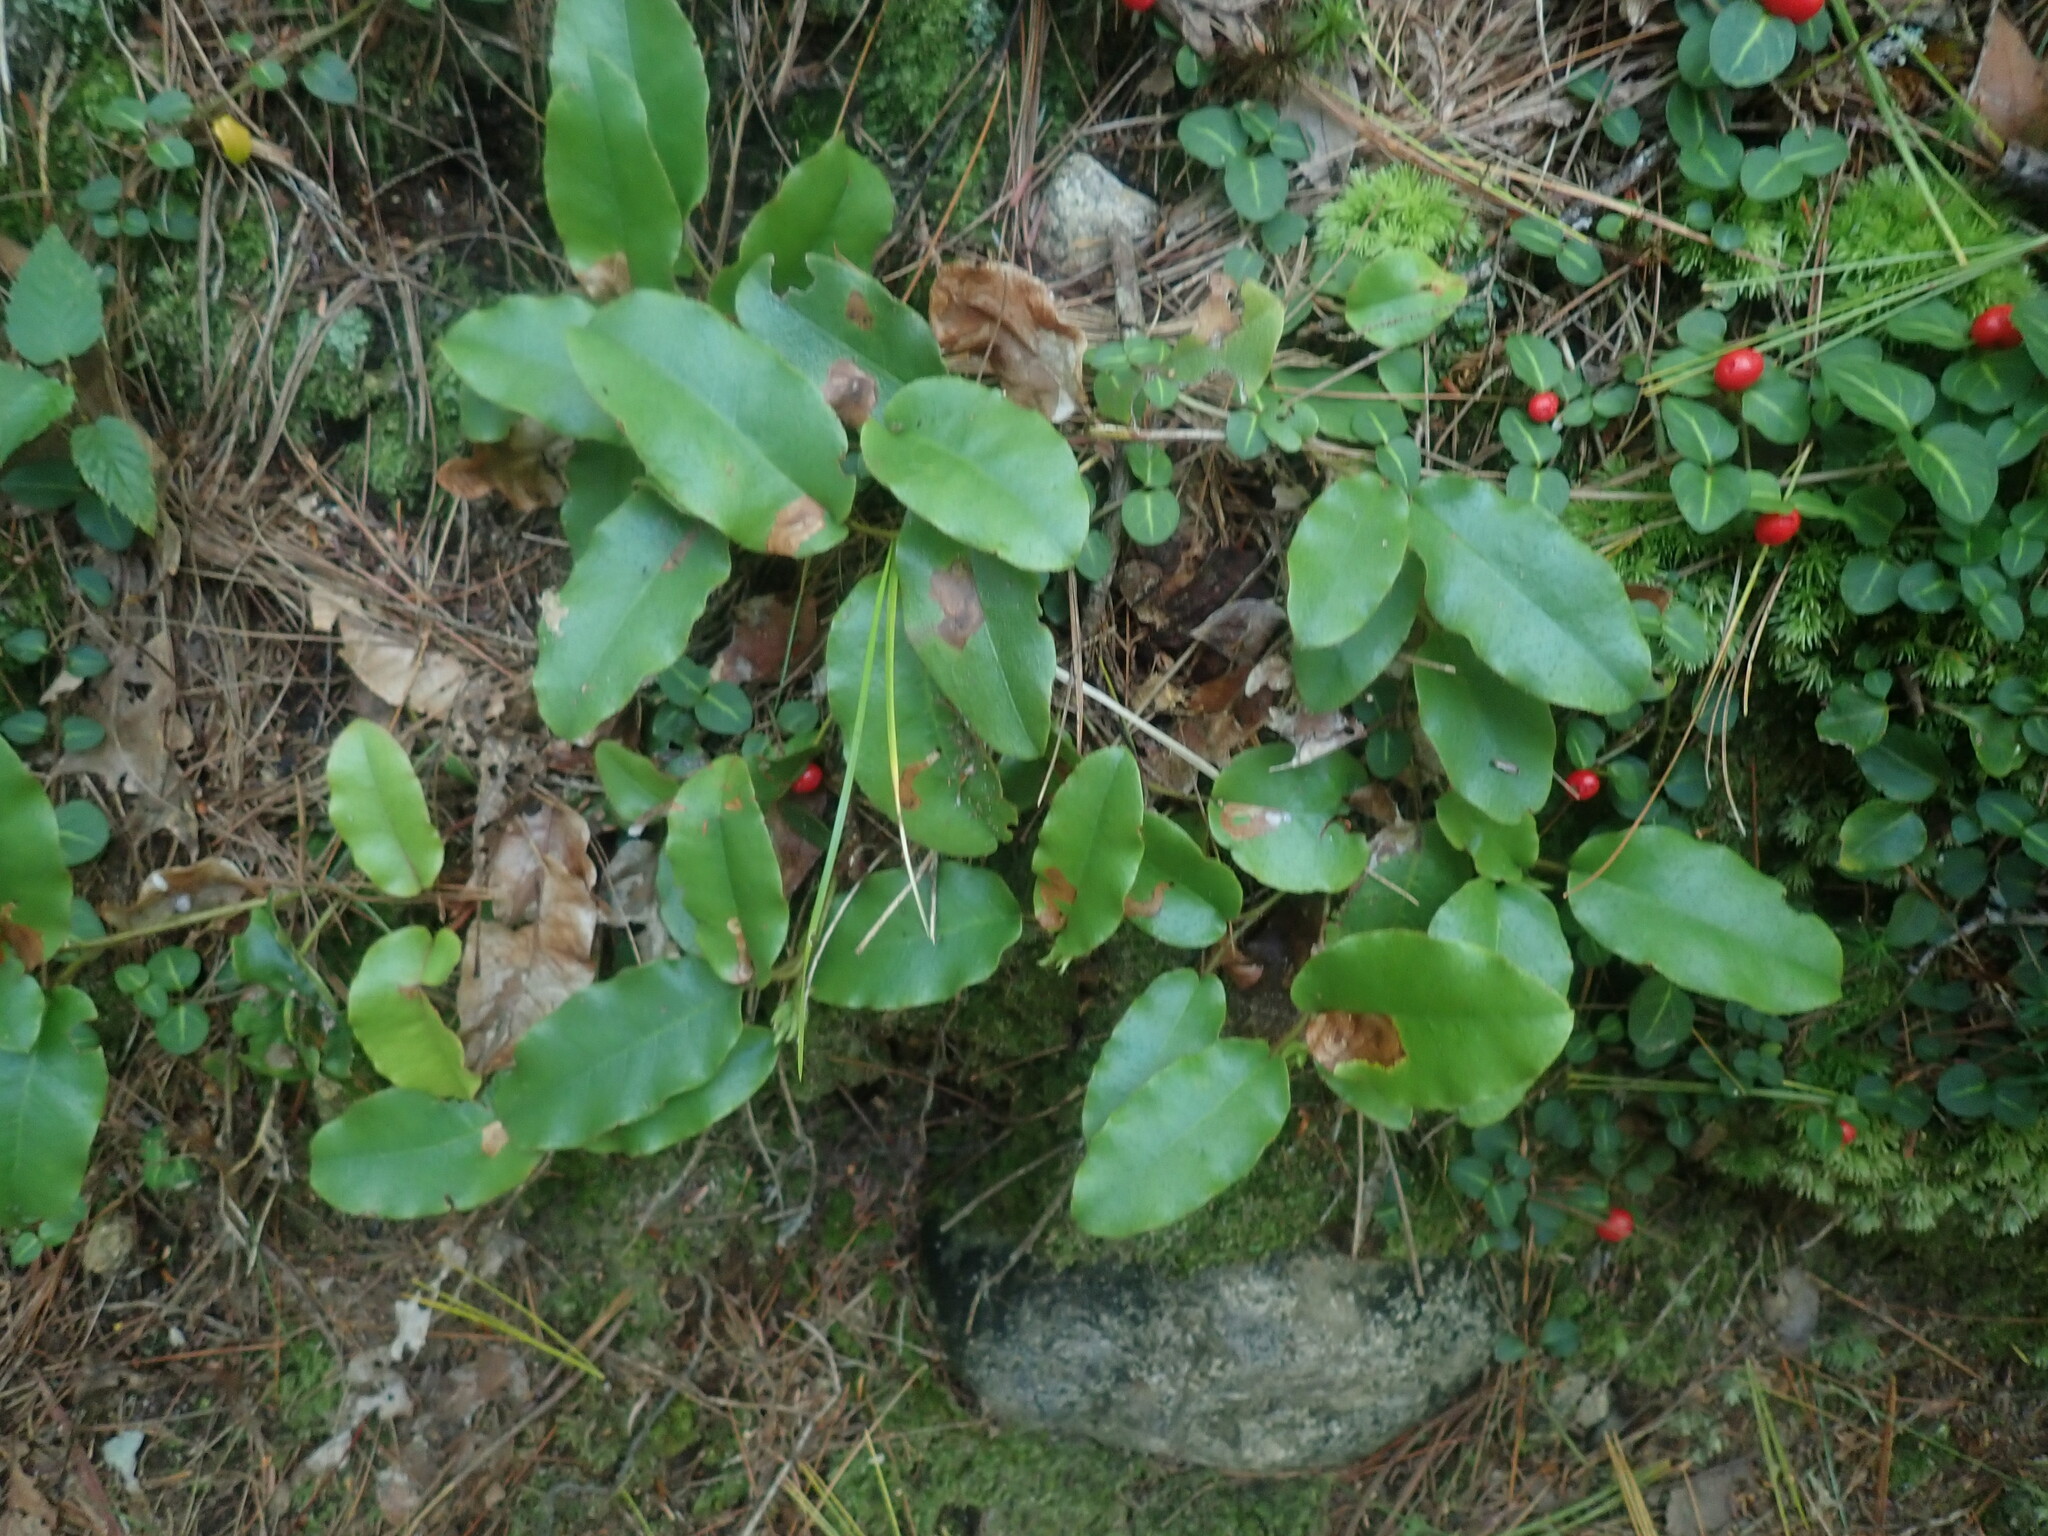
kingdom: Plantae
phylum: Tracheophyta
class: Magnoliopsida
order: Ericales
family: Ericaceae
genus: Epigaea
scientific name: Epigaea repens
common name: Gravelroot
